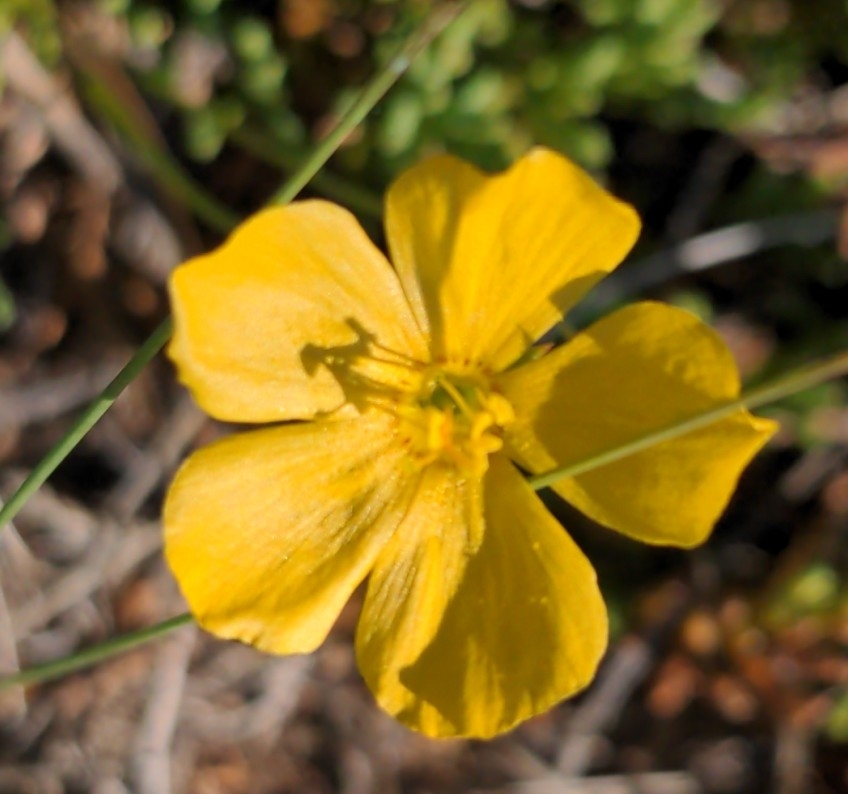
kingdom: Plantae
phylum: Tracheophyta
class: Magnoliopsida
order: Malpighiales
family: Linaceae
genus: Linum
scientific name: Linum rigidum
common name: Stiff-stem flax
